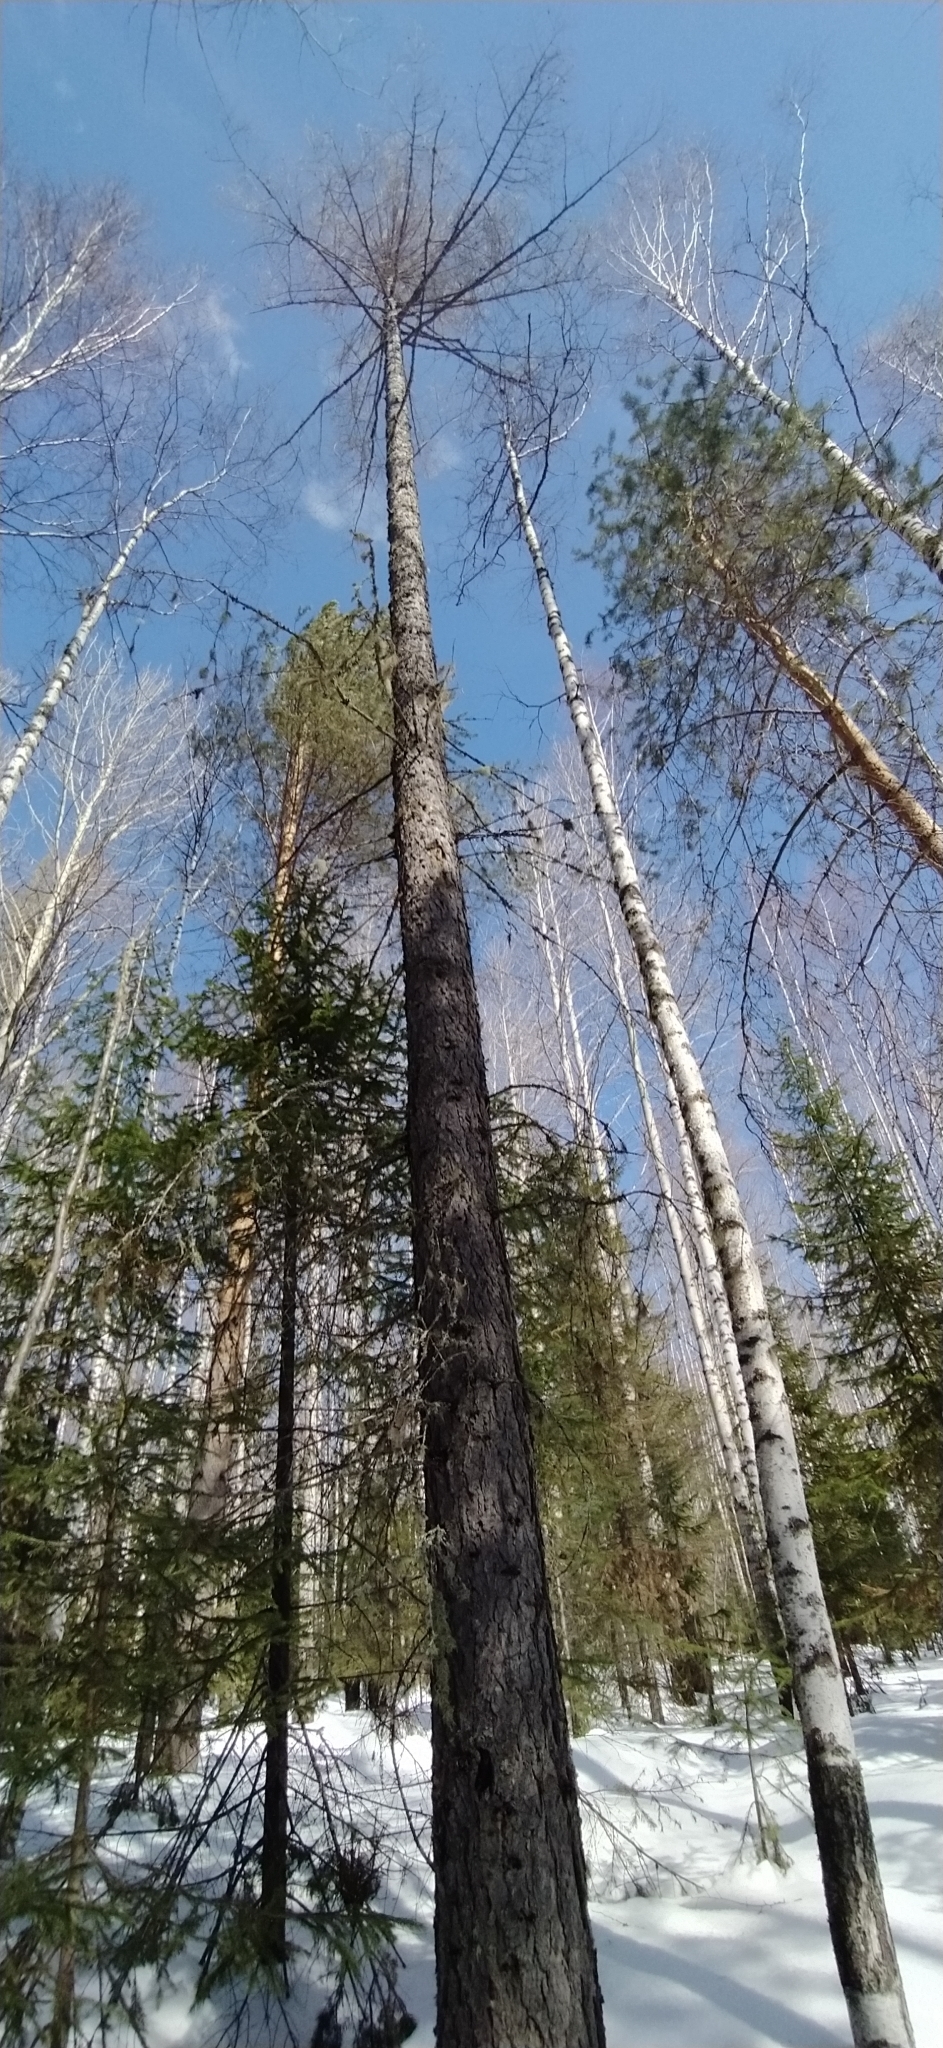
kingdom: Plantae
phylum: Tracheophyta
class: Pinopsida
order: Pinales
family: Pinaceae
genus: Larix
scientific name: Larix sibirica
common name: Siberian larch
